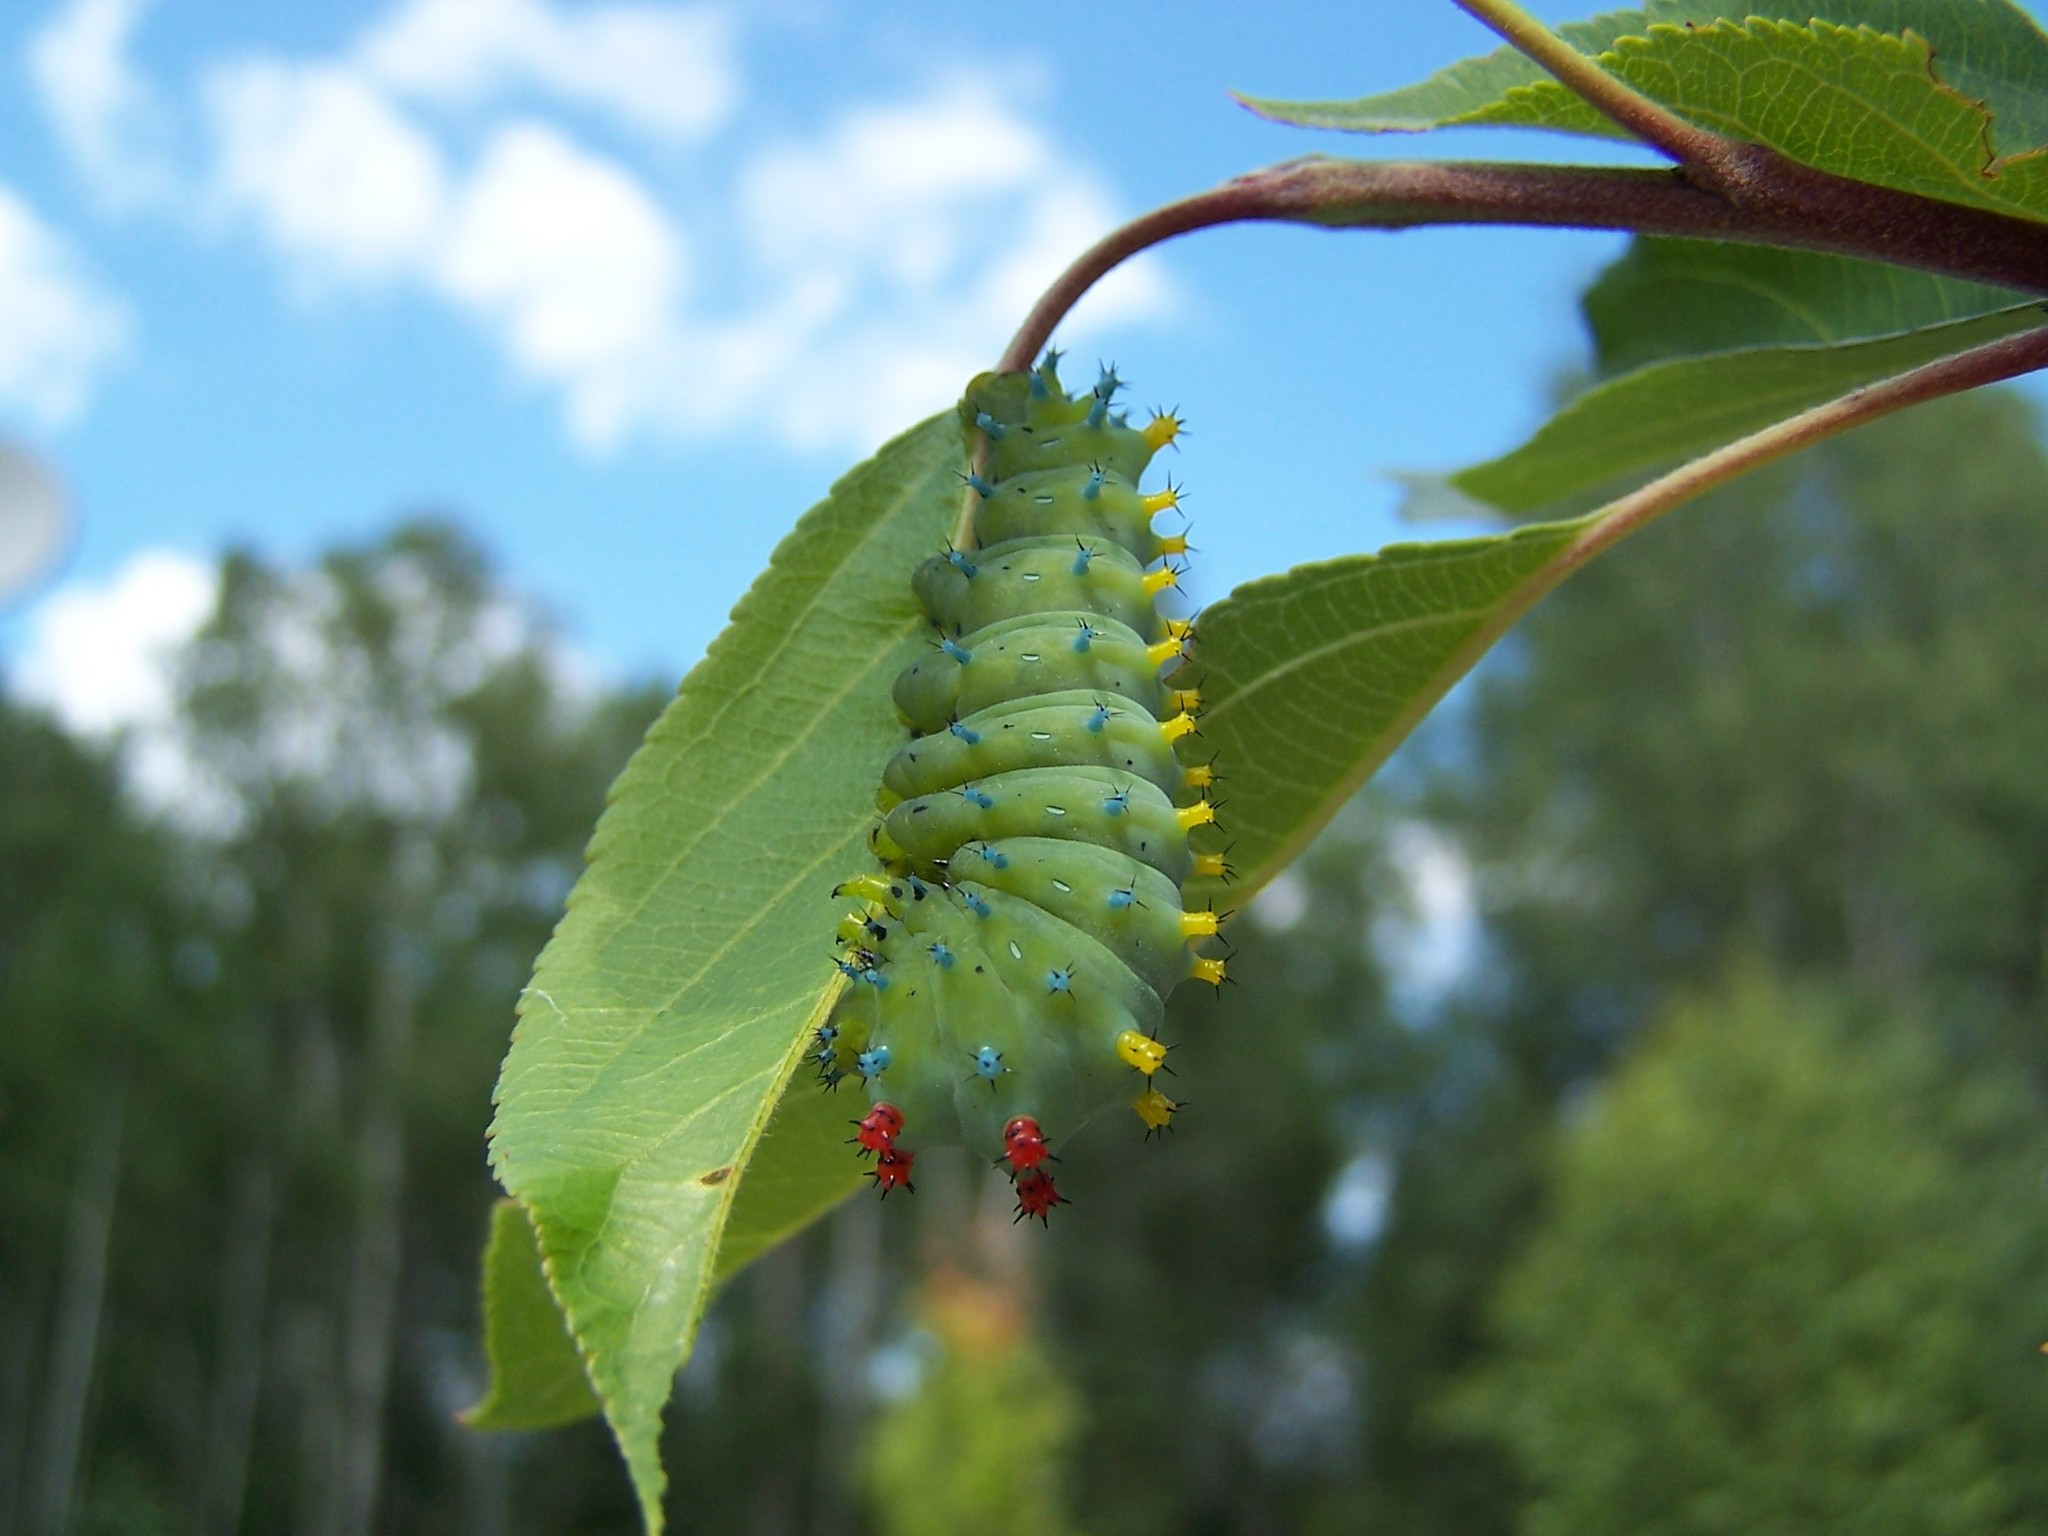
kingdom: Animalia
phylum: Arthropoda
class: Insecta
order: Lepidoptera
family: Saturniidae
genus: Hyalophora
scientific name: Hyalophora cecropia
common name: Cecropia silkmoth
